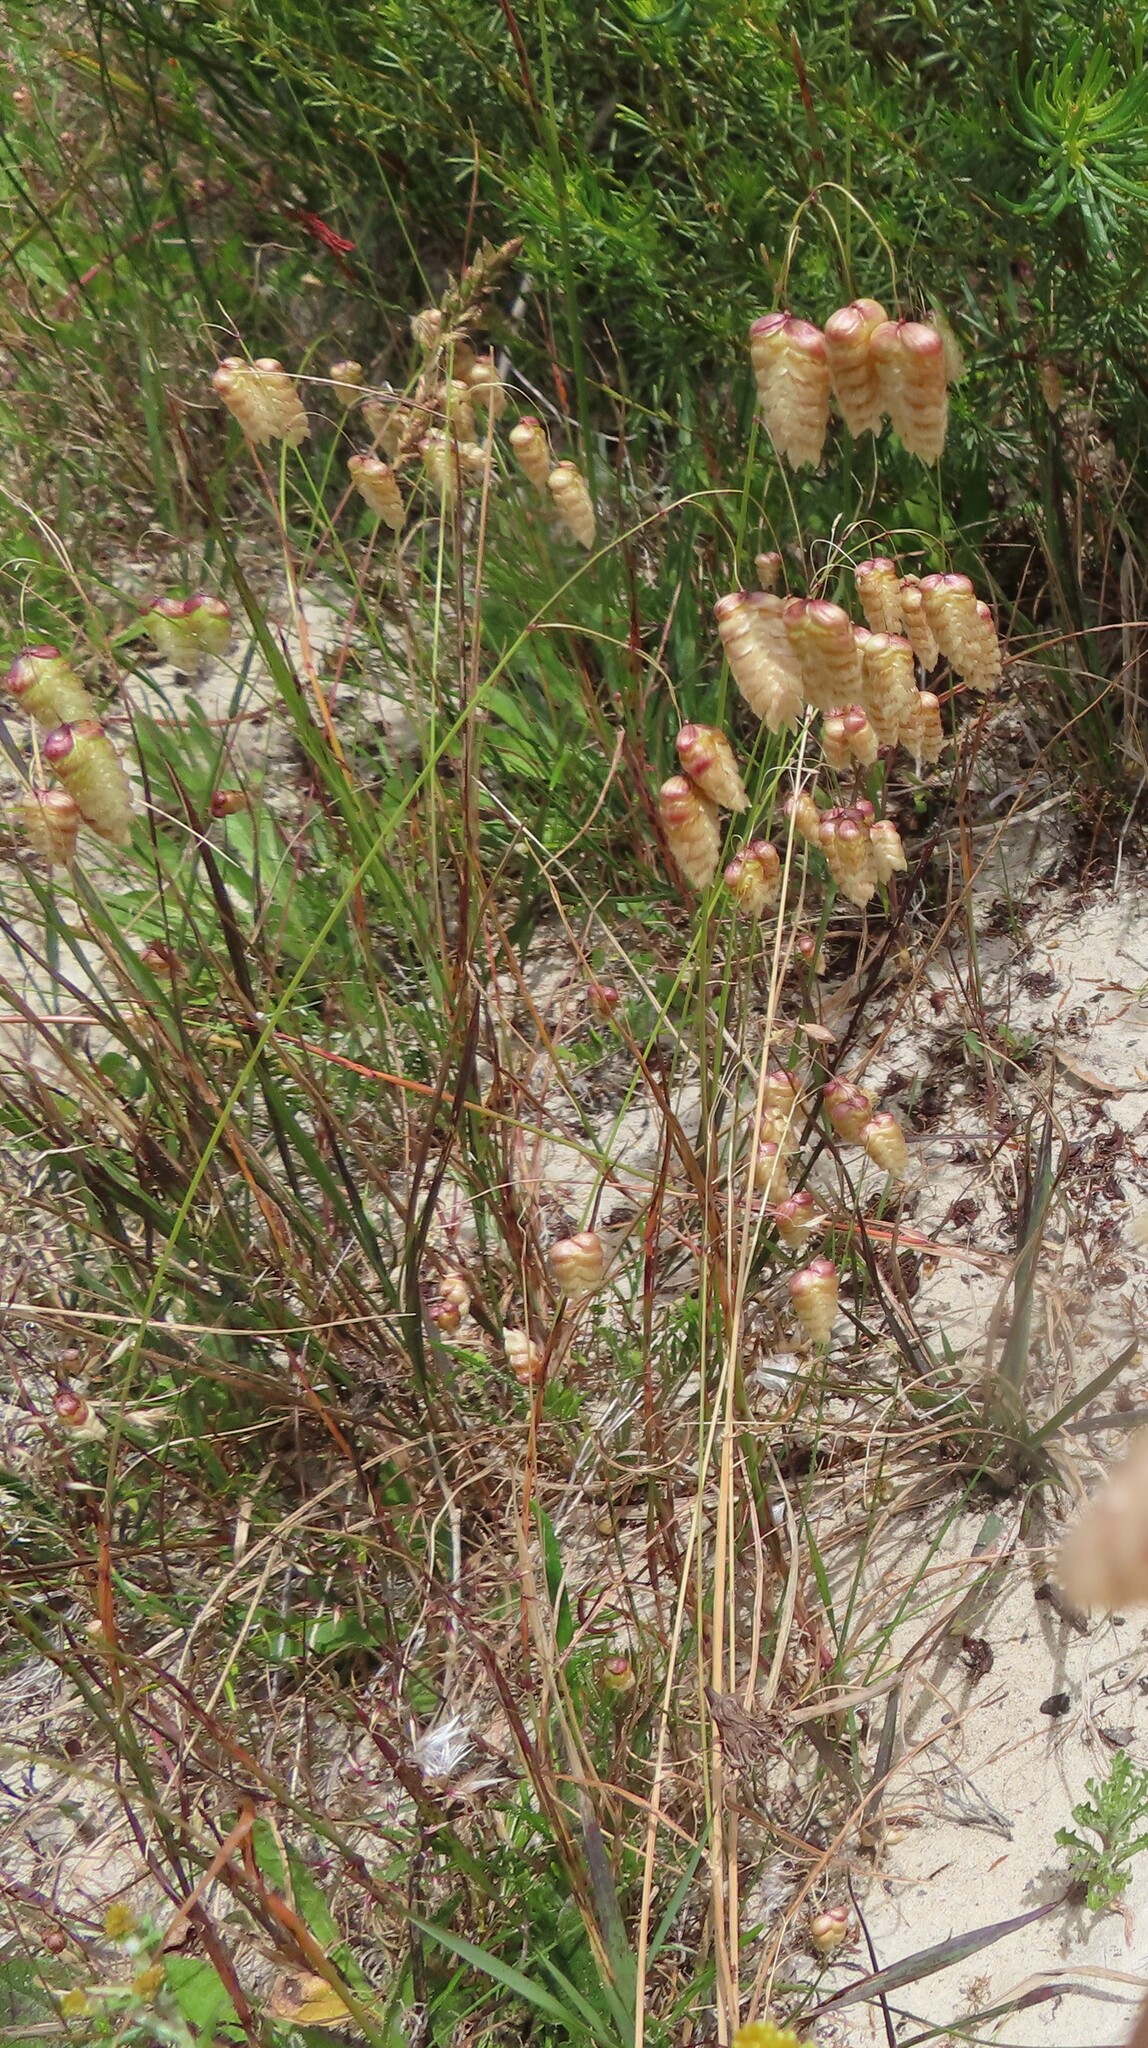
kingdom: Plantae
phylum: Tracheophyta
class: Liliopsida
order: Poales
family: Poaceae
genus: Briza
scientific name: Briza maxima
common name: Big quakinggrass
